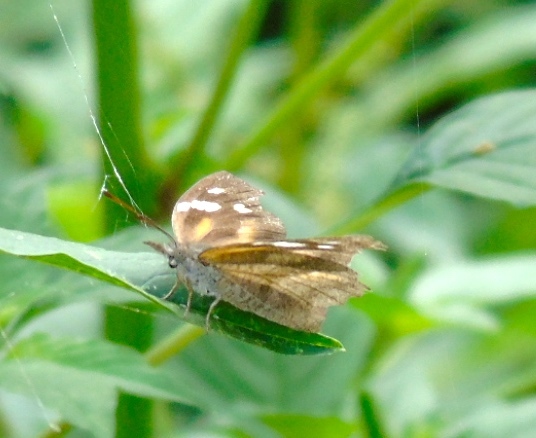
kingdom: Animalia
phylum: Arthropoda
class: Insecta
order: Lepidoptera
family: Nymphalidae
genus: Libytheana
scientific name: Libytheana carinenta
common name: American snout
